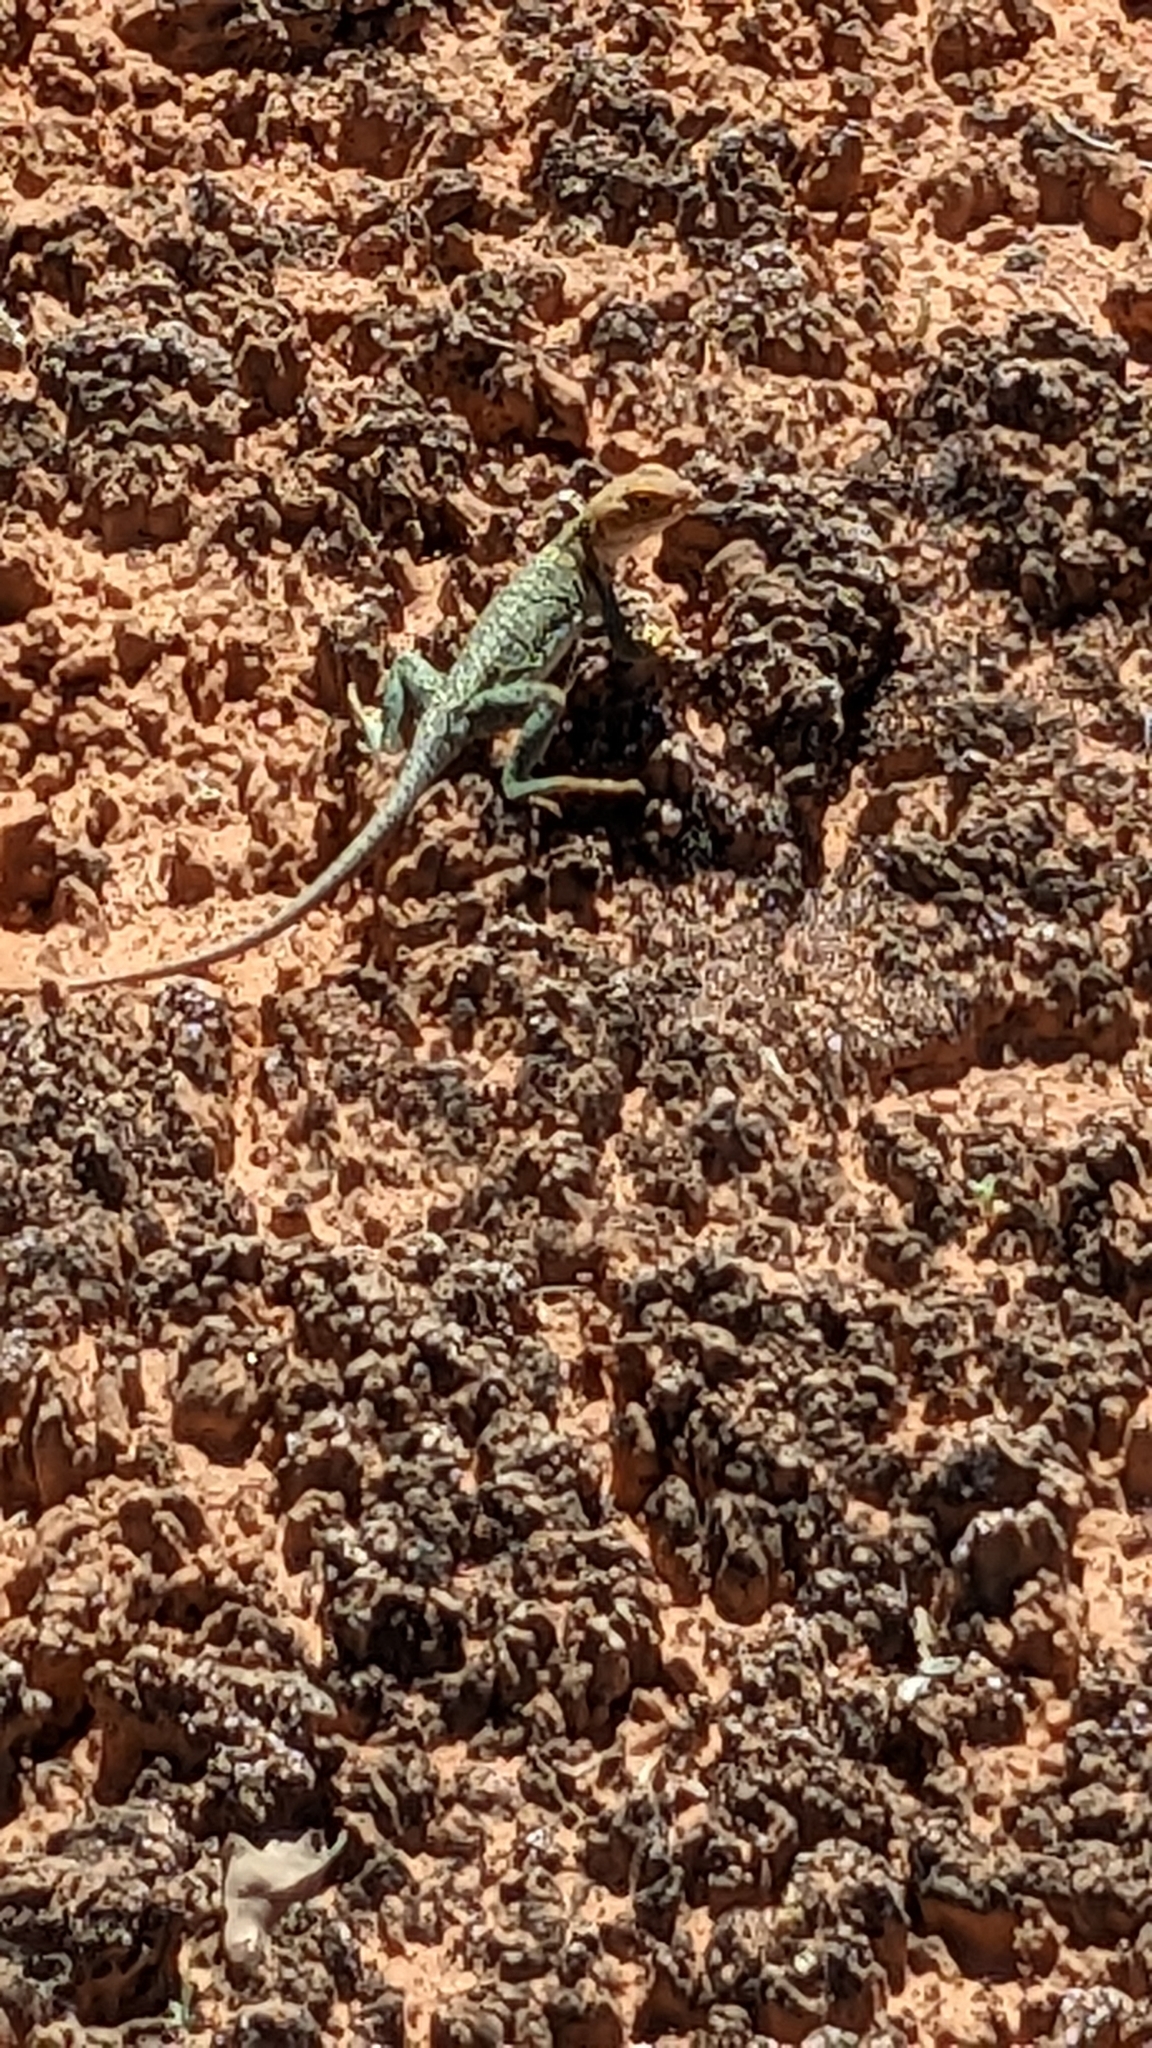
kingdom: Animalia
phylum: Chordata
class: Squamata
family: Crotaphytidae
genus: Crotaphytus
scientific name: Crotaphytus collaris
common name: Collared lizard
